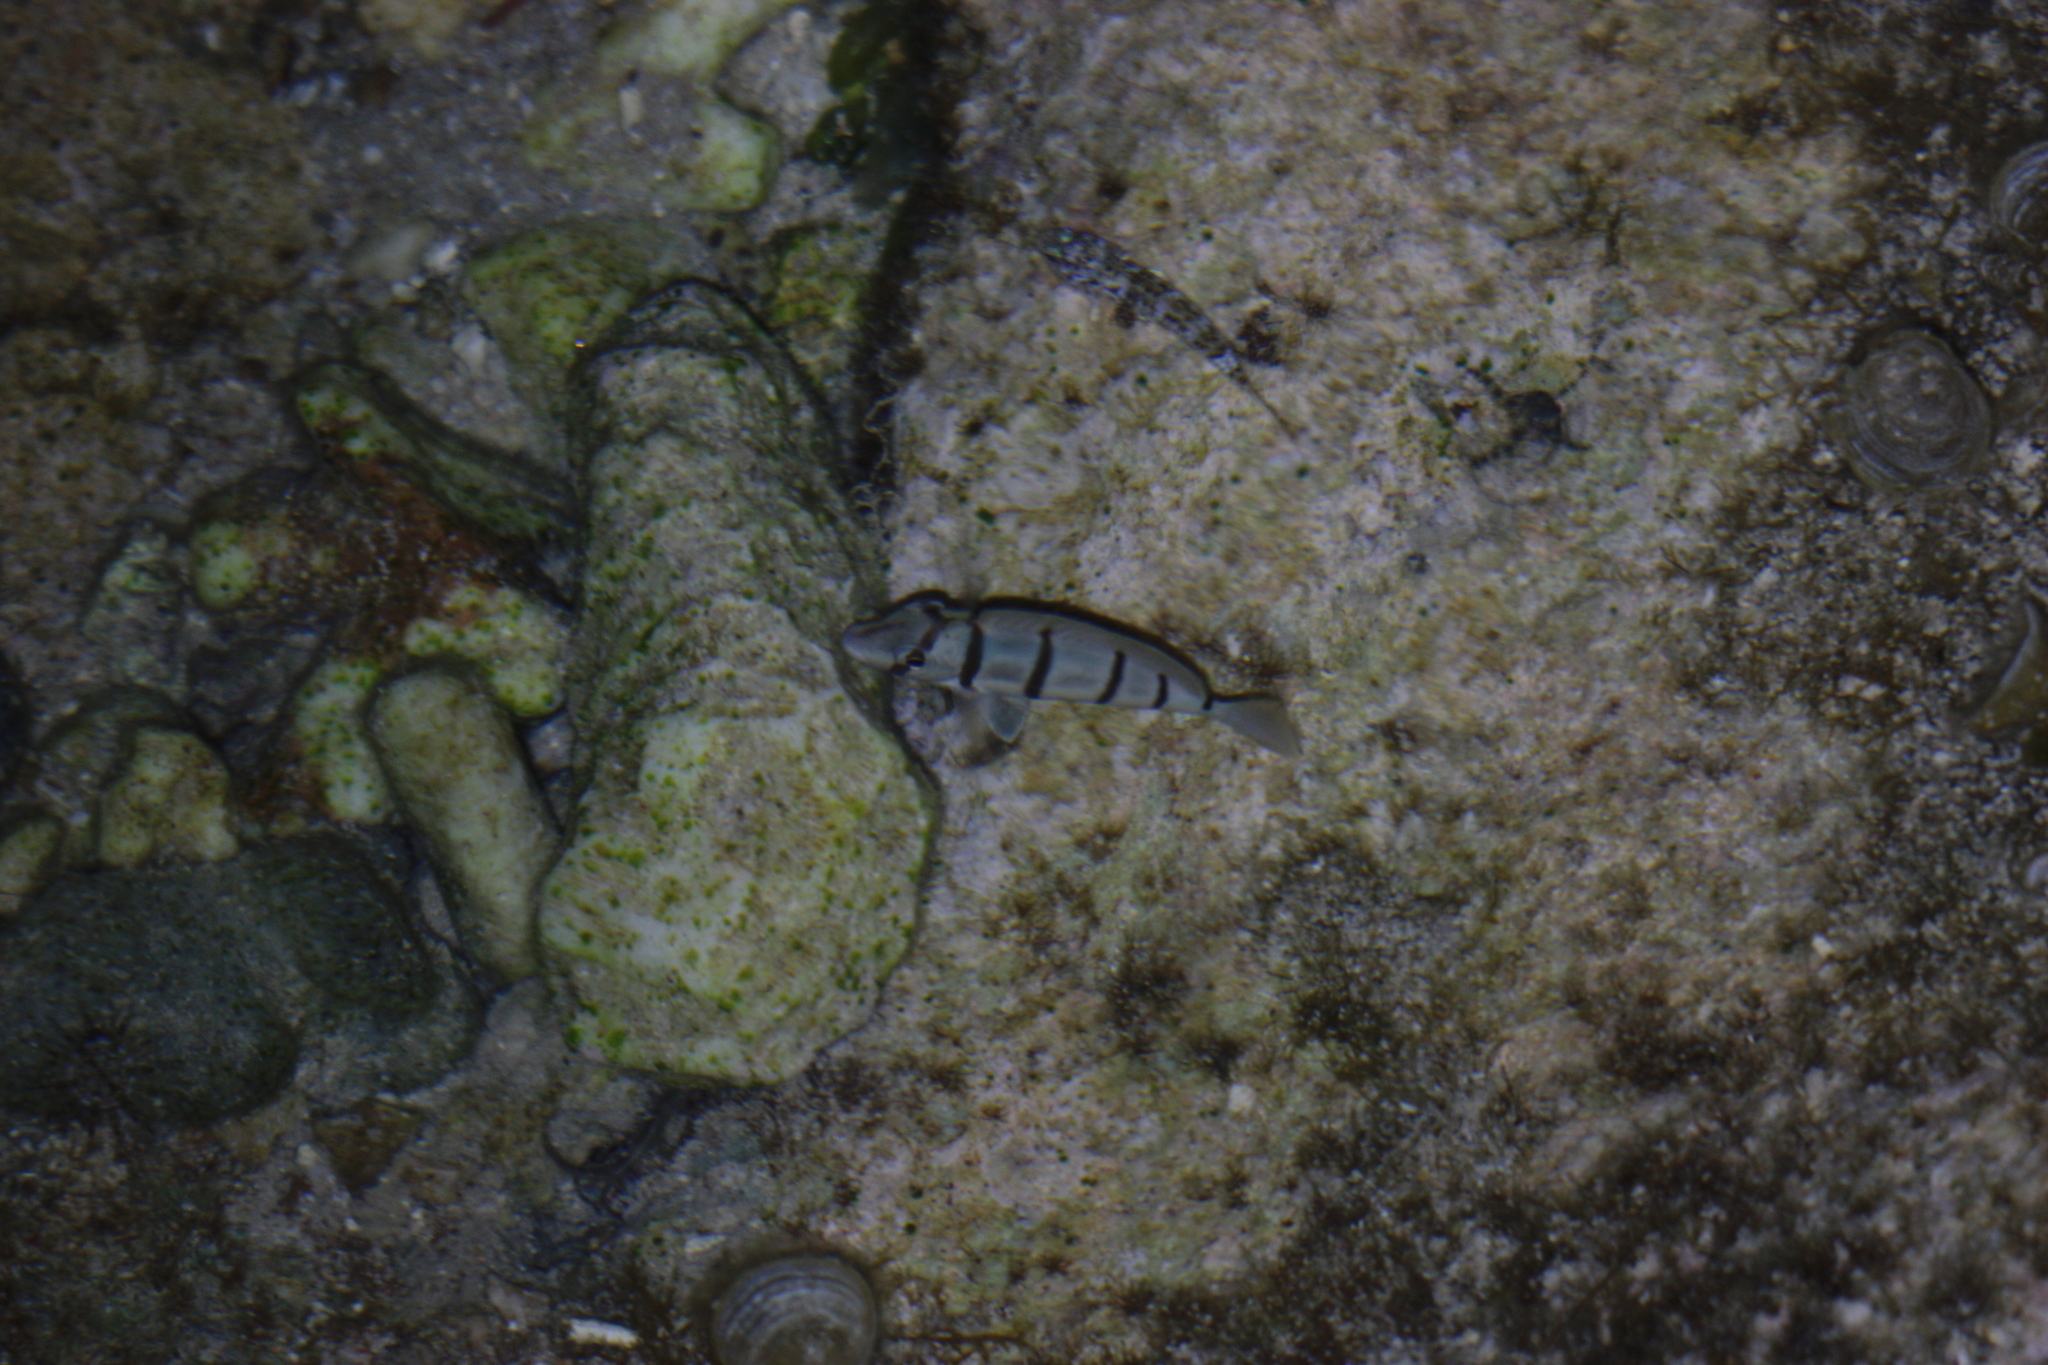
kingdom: Animalia
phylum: Chordata
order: Perciformes
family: Acanthuridae
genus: Acanthurus
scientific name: Acanthurus triostegus
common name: Convict surgeonfish
